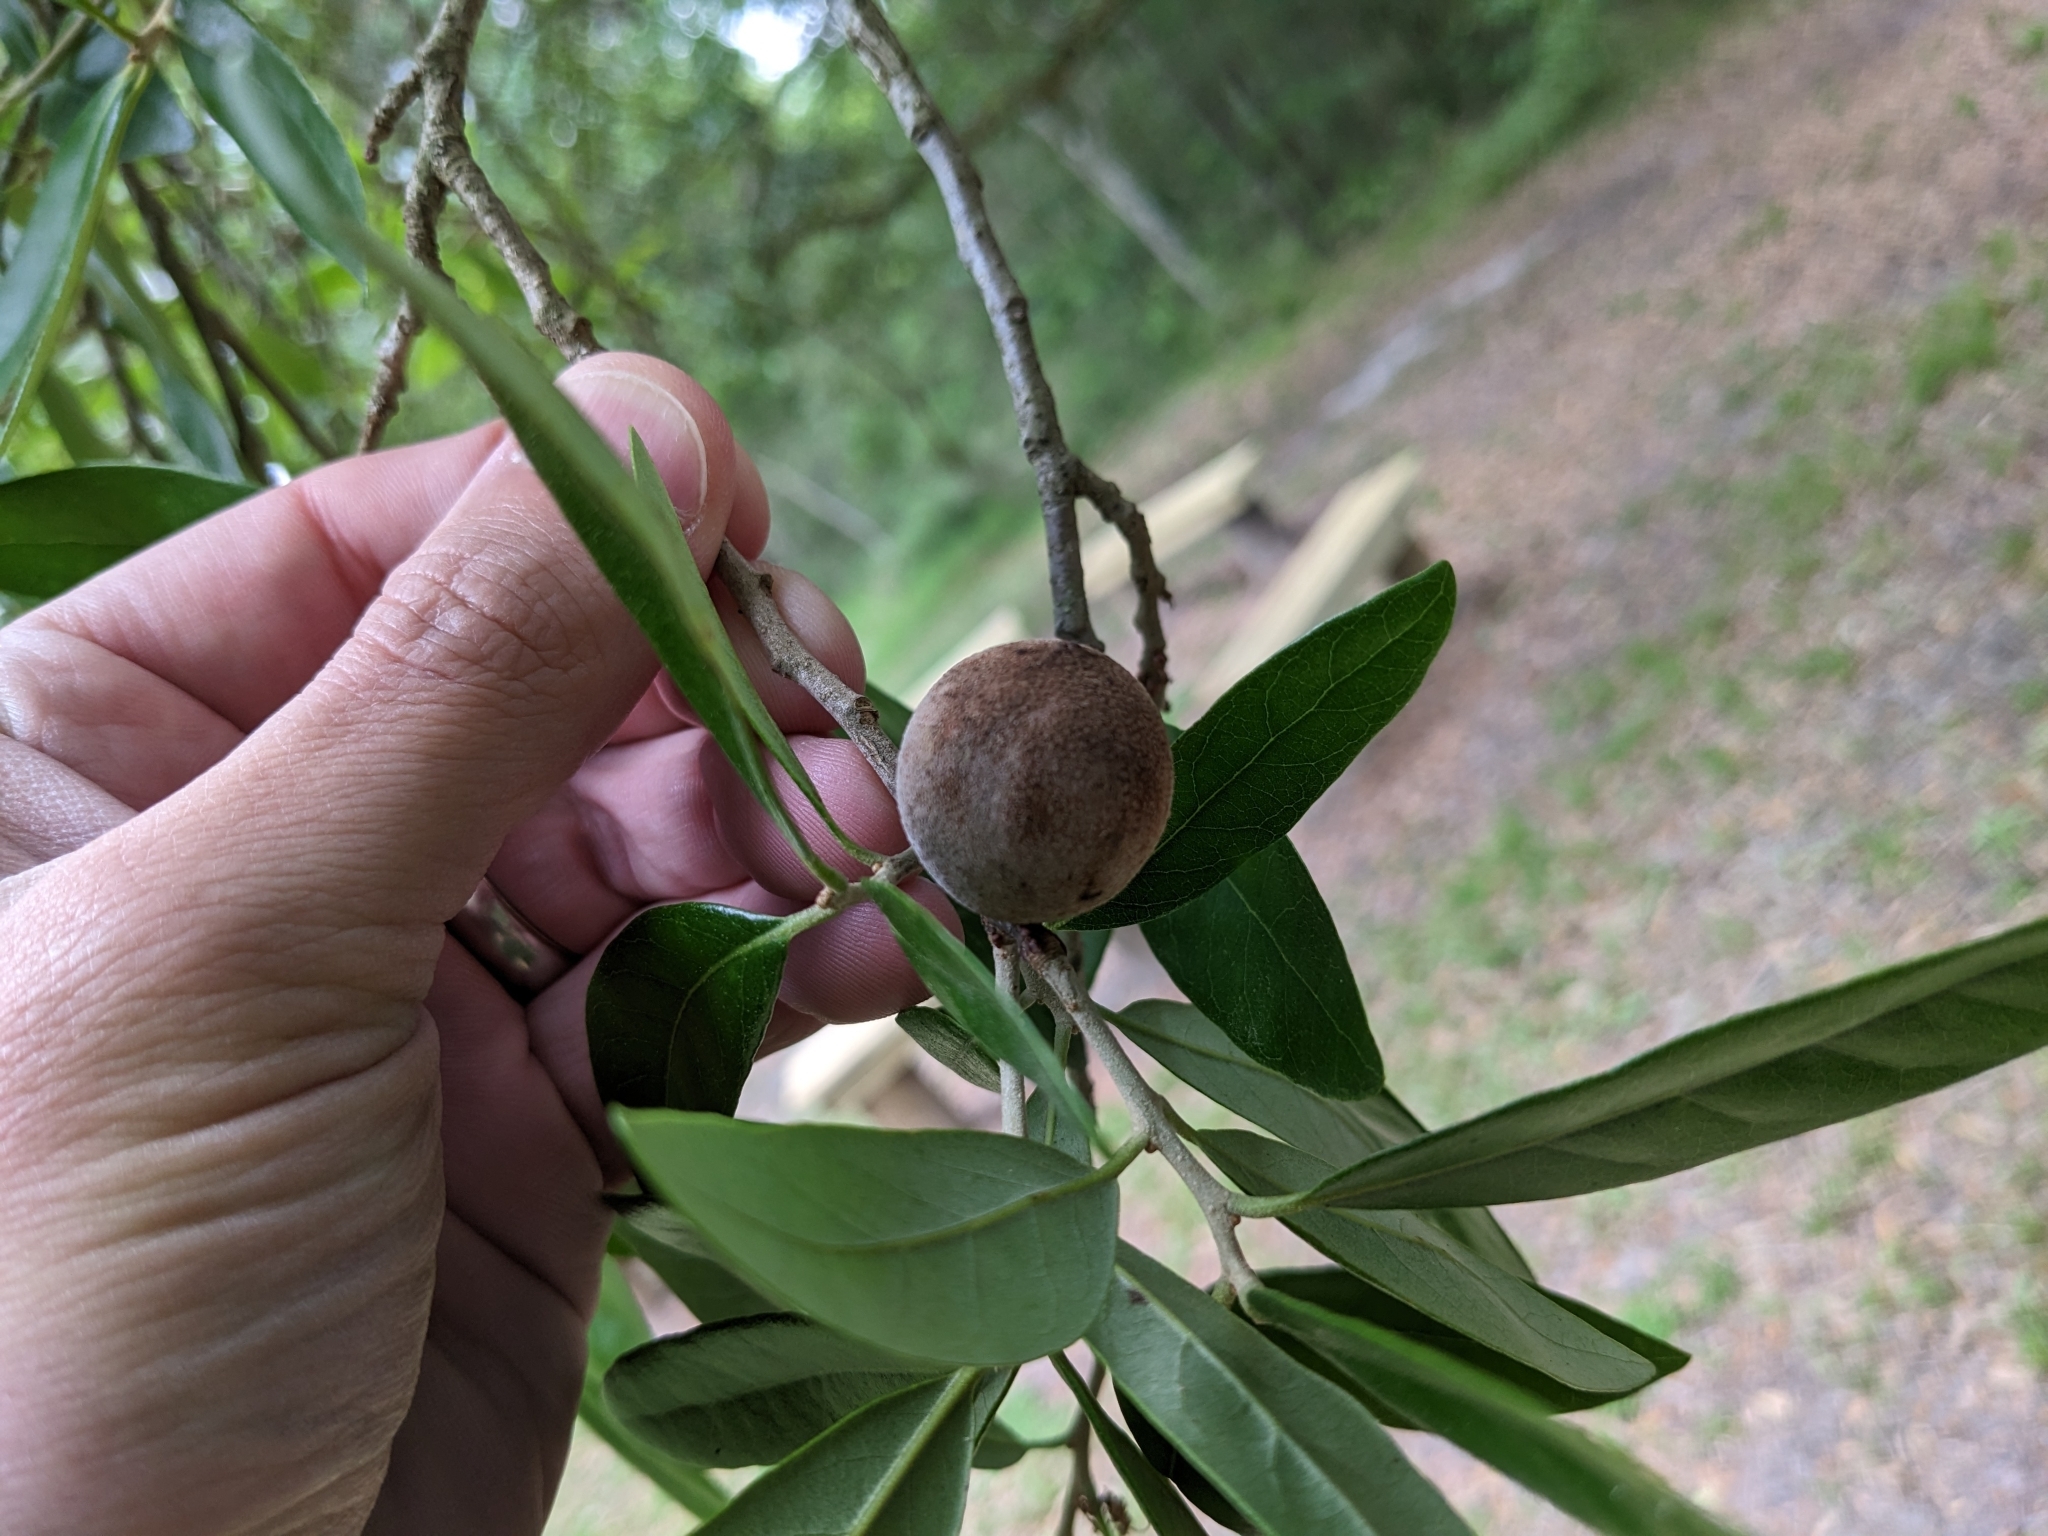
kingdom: Animalia
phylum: Arthropoda
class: Insecta
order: Hymenoptera
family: Cynipidae
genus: Disholcaspis
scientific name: Disholcaspis
